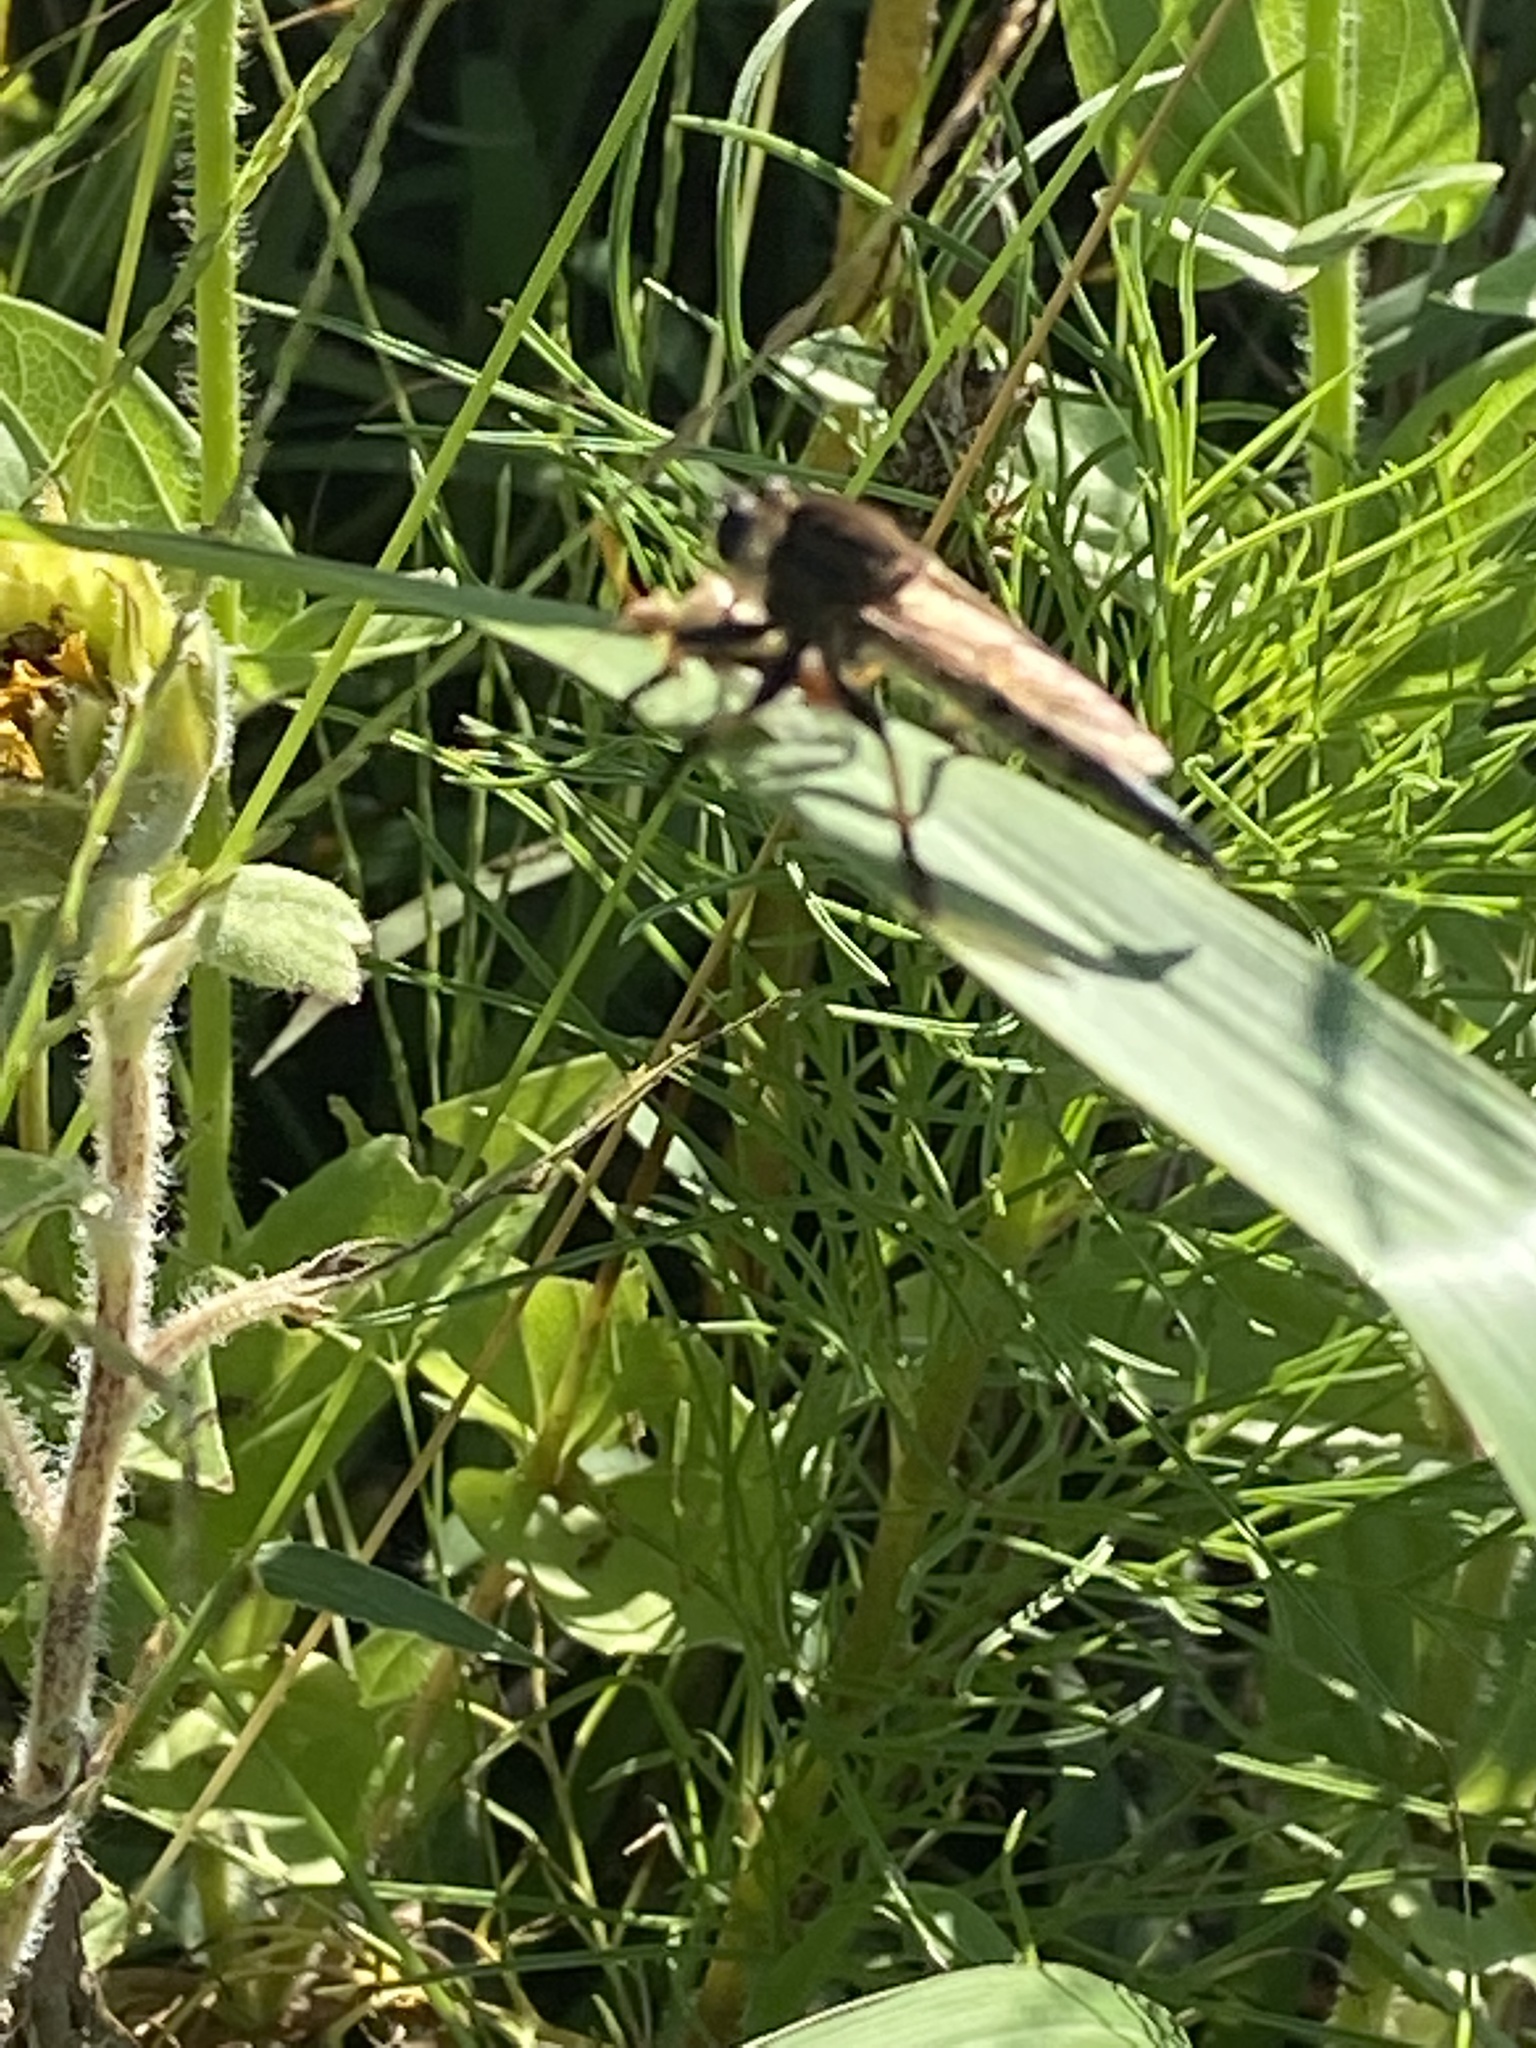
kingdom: Animalia
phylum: Arthropoda
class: Insecta
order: Diptera
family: Asilidae
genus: Promachus
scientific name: Promachus rufipes
